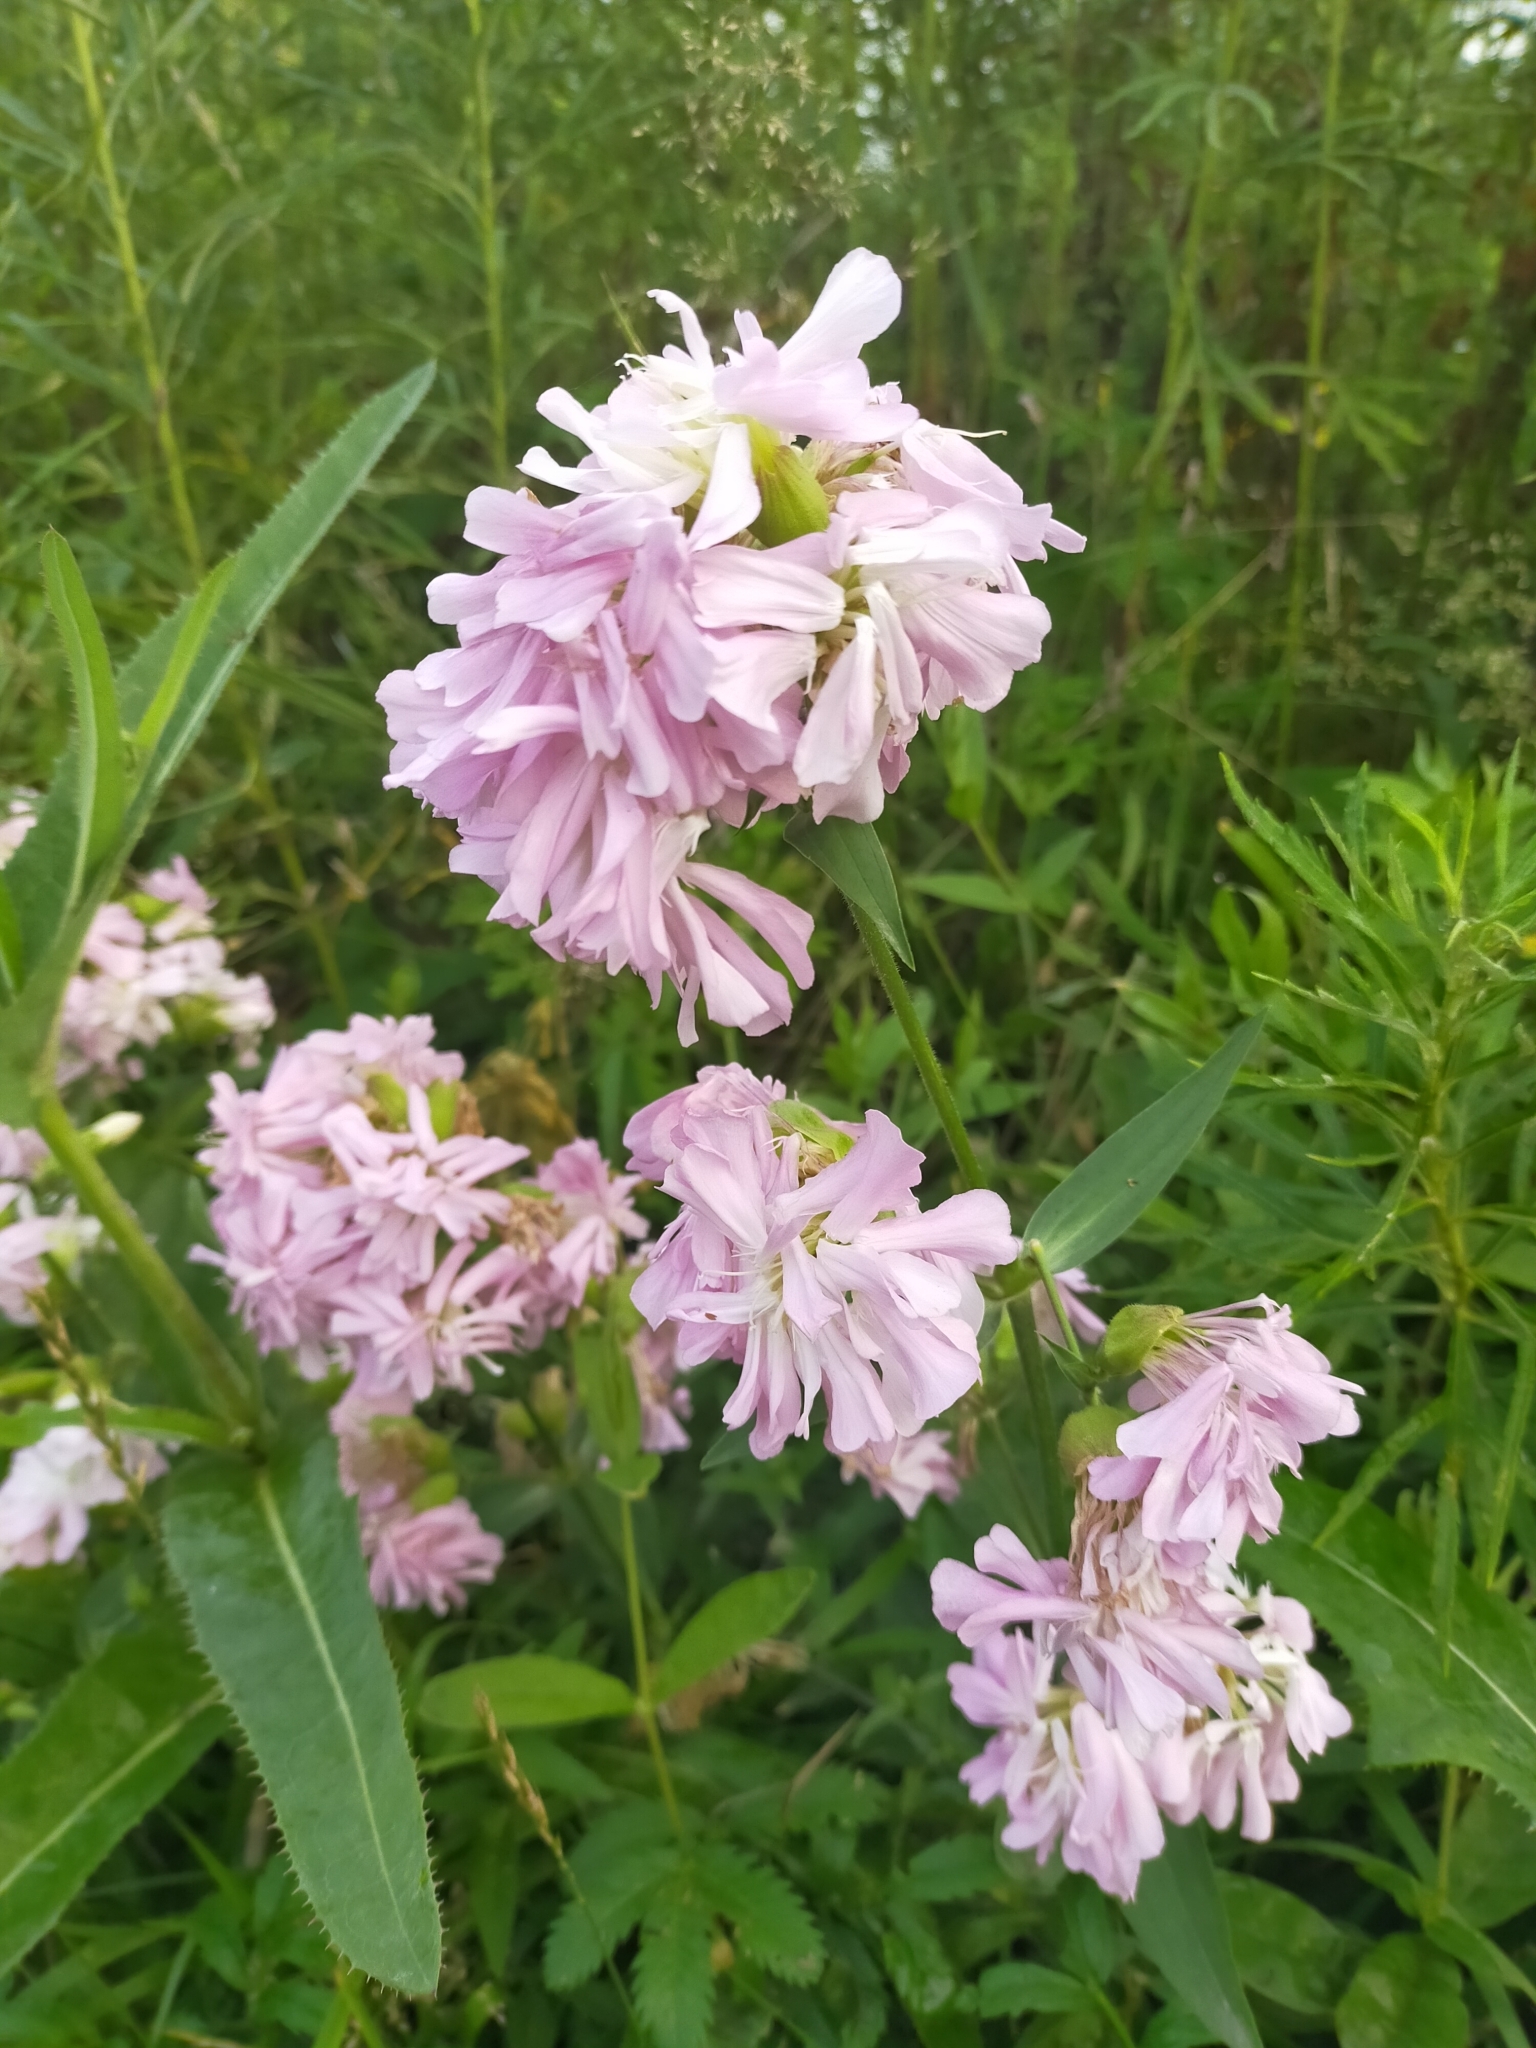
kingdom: Plantae
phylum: Tracheophyta
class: Magnoliopsida
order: Caryophyllales
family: Caryophyllaceae
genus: Saponaria
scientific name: Saponaria officinalis
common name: Soapwort
